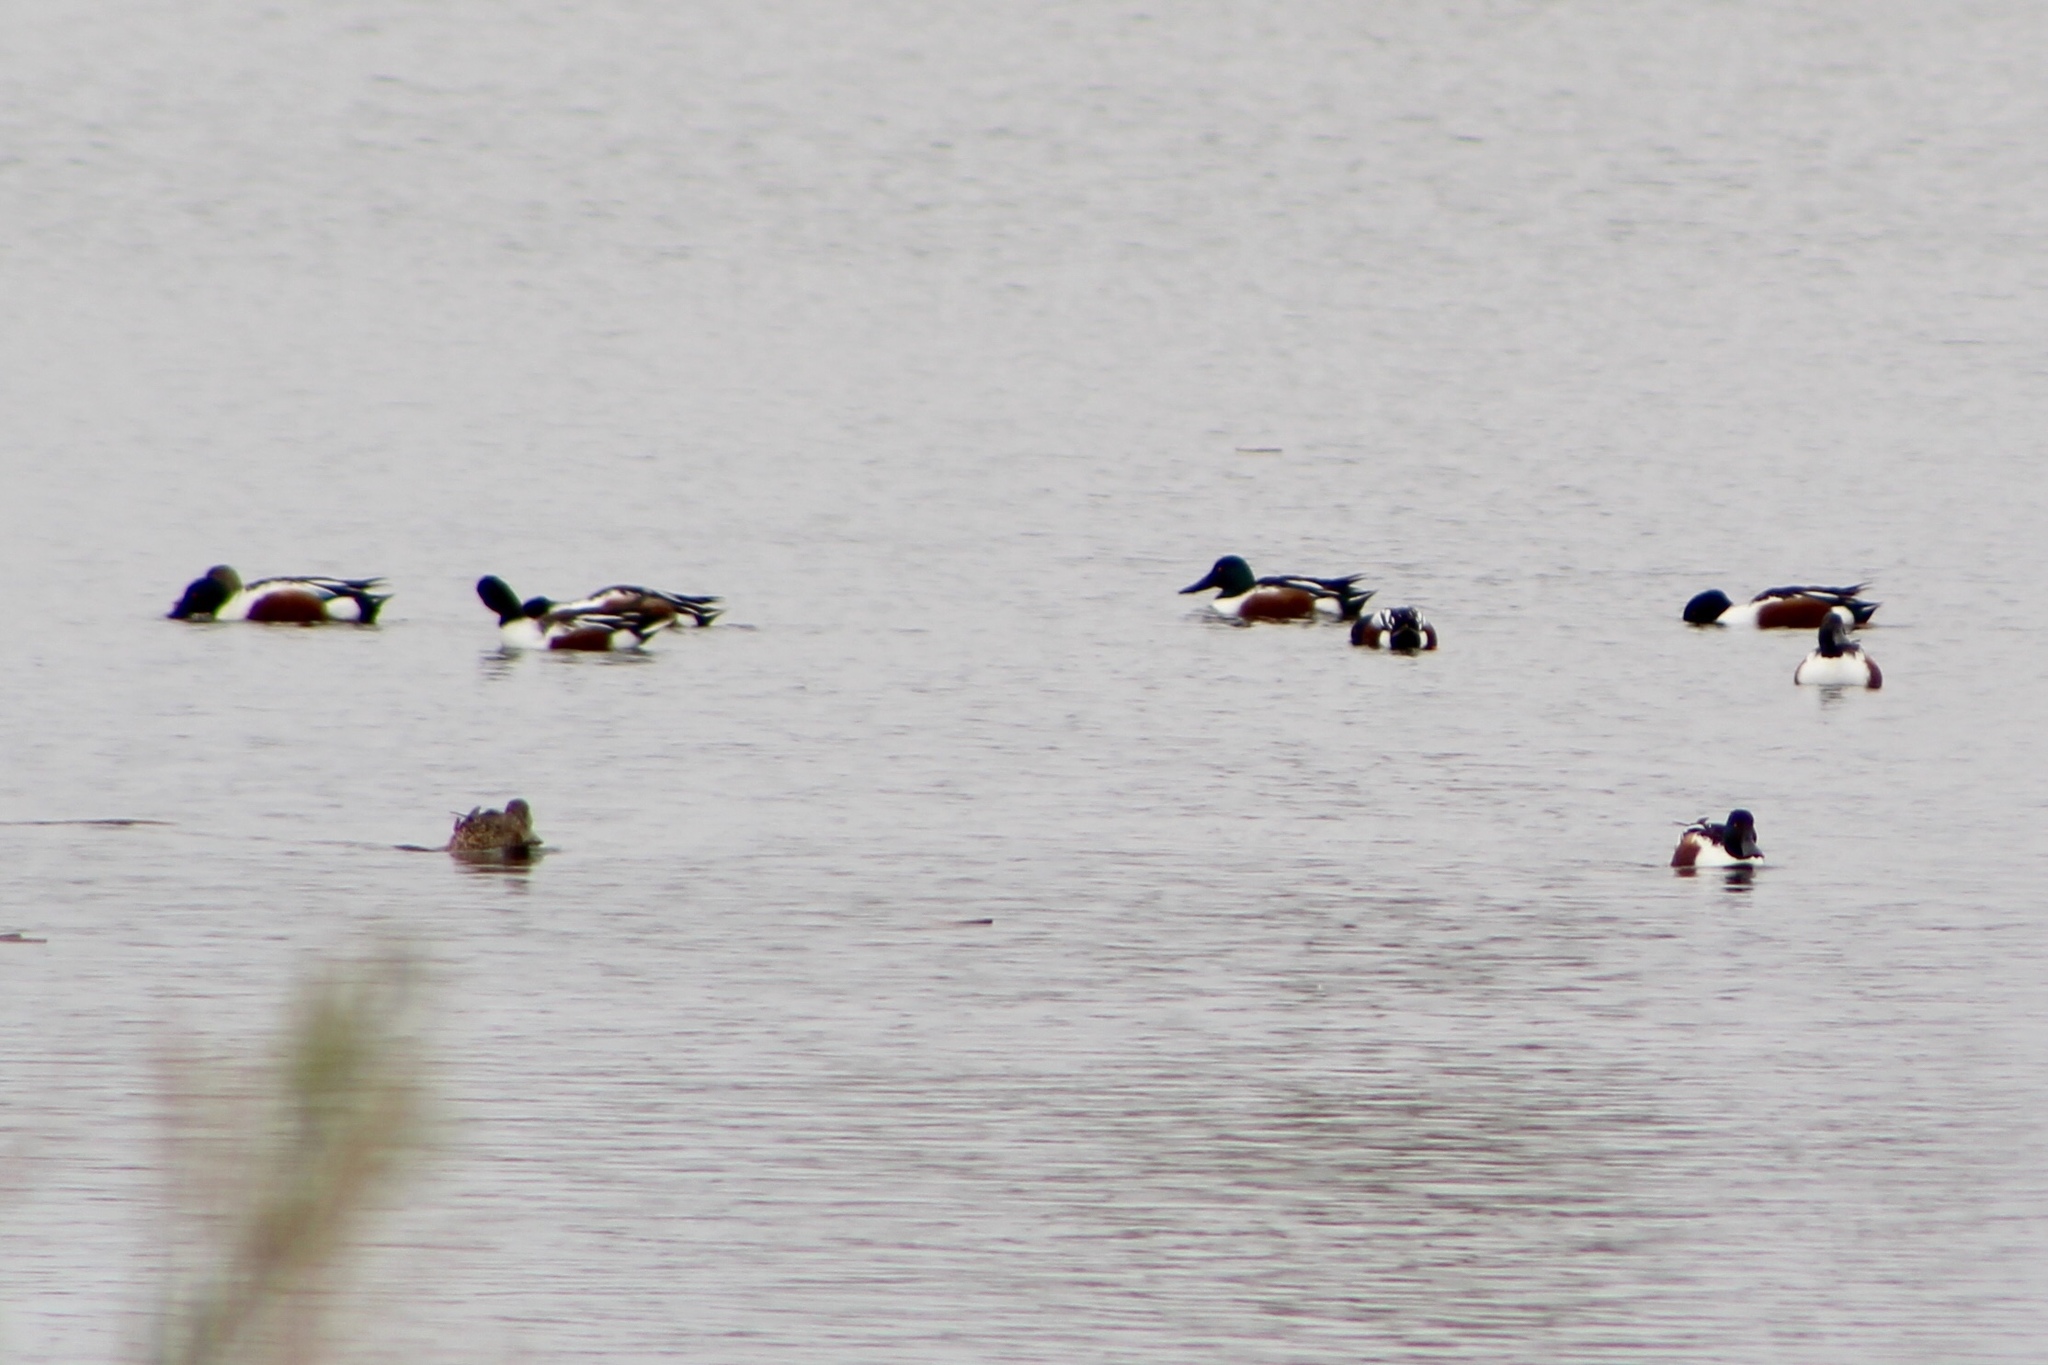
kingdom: Animalia
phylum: Chordata
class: Aves
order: Anseriformes
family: Anatidae
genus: Spatula
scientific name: Spatula clypeata
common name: Northern shoveler
